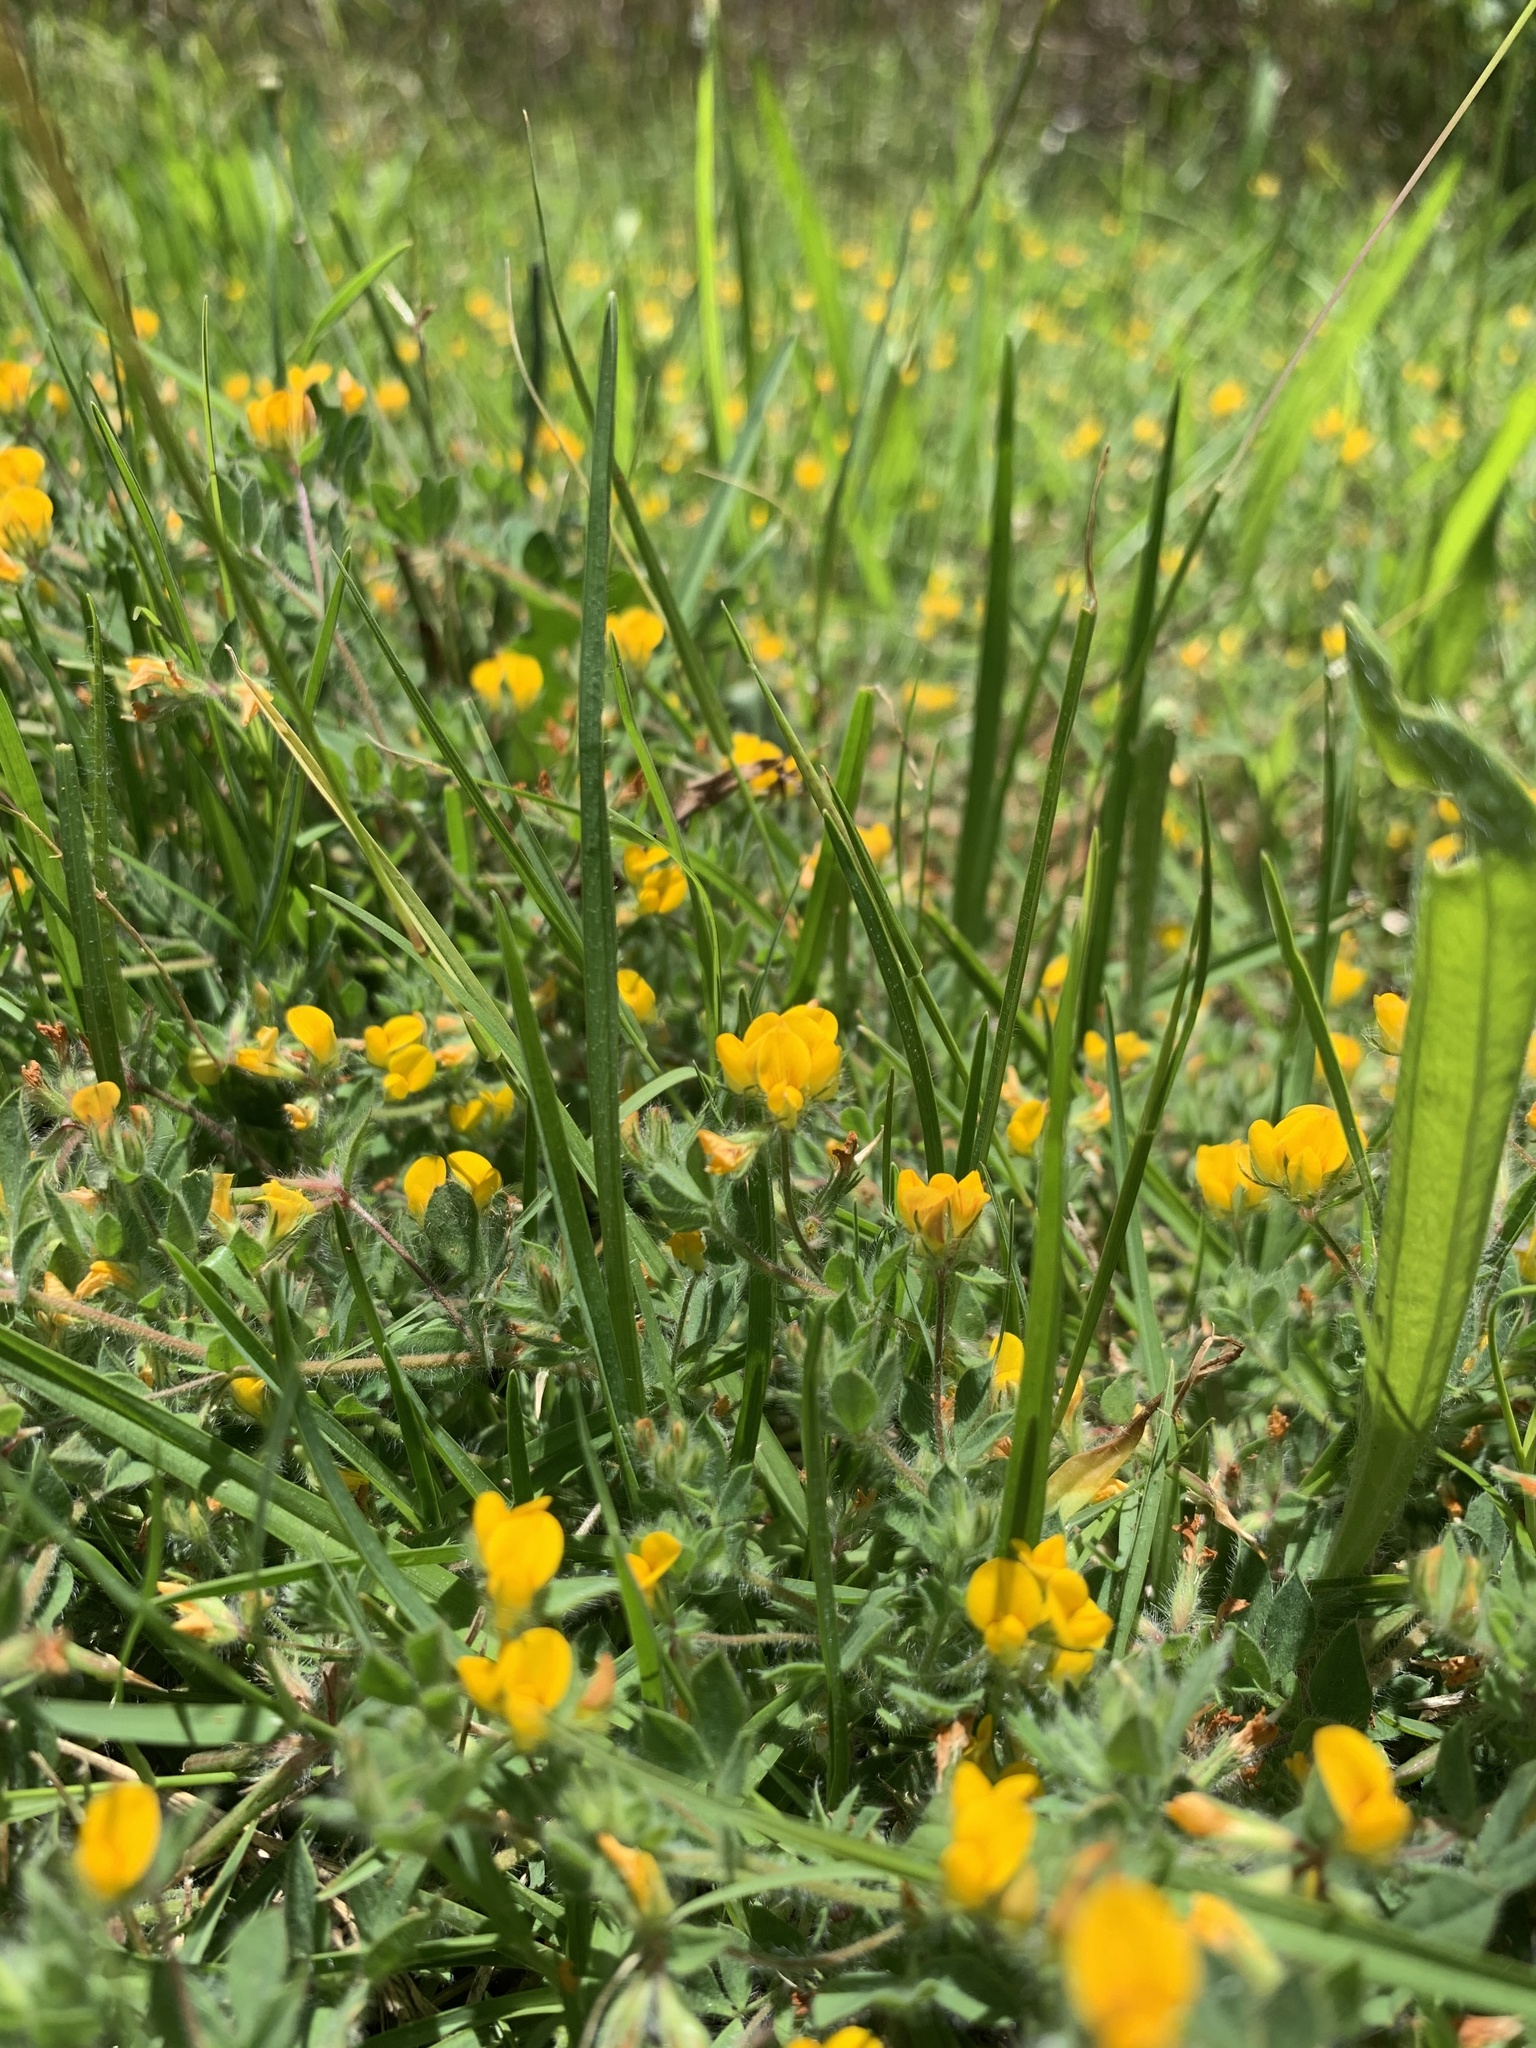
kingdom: Plantae
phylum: Tracheophyta
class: Magnoliopsida
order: Fabales
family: Fabaceae
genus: Lotus
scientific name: Lotus subbiflorus
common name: Hairy bird's-foot trefoil
